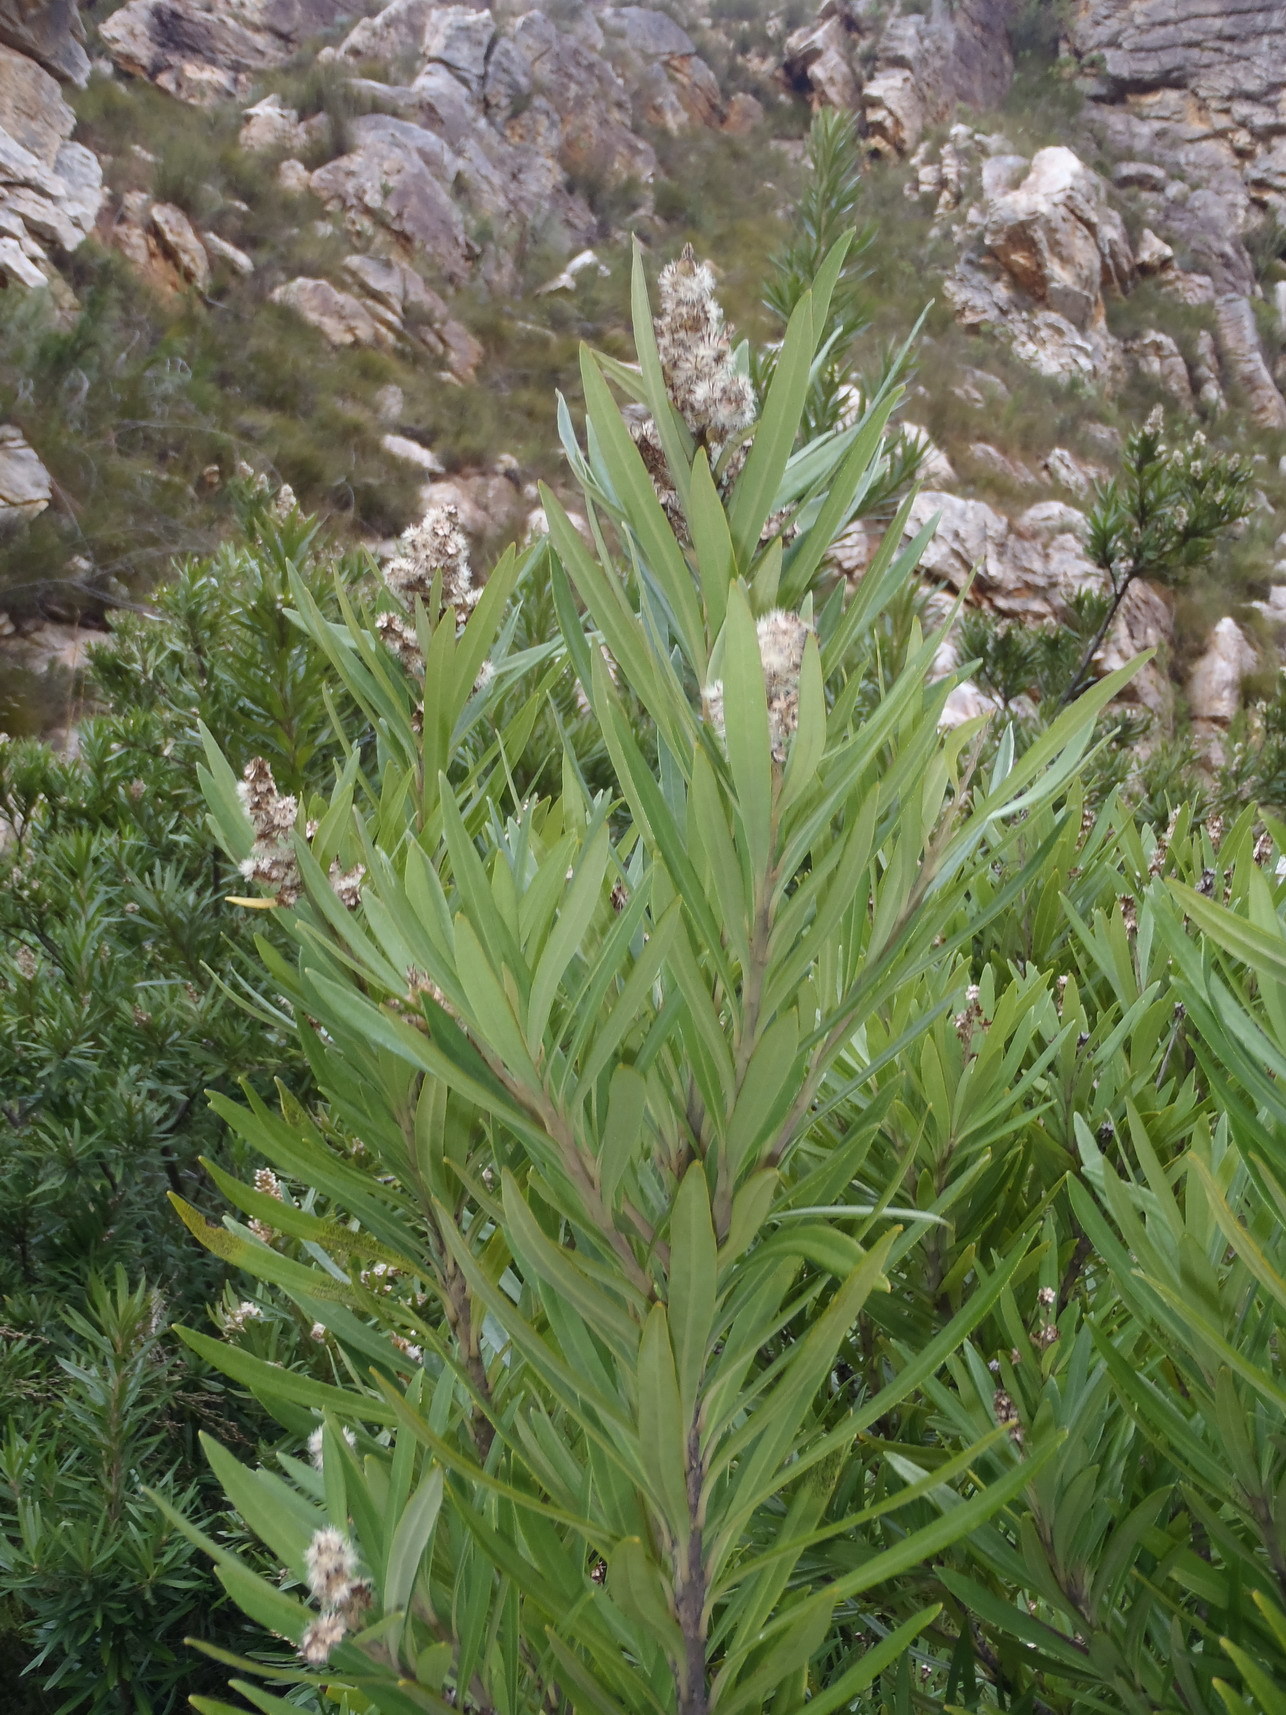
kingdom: Plantae
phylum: Tracheophyta
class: Magnoliopsida
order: Asterales
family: Asteraceae
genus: Brachylaena
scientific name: Brachylaena neriifolia
